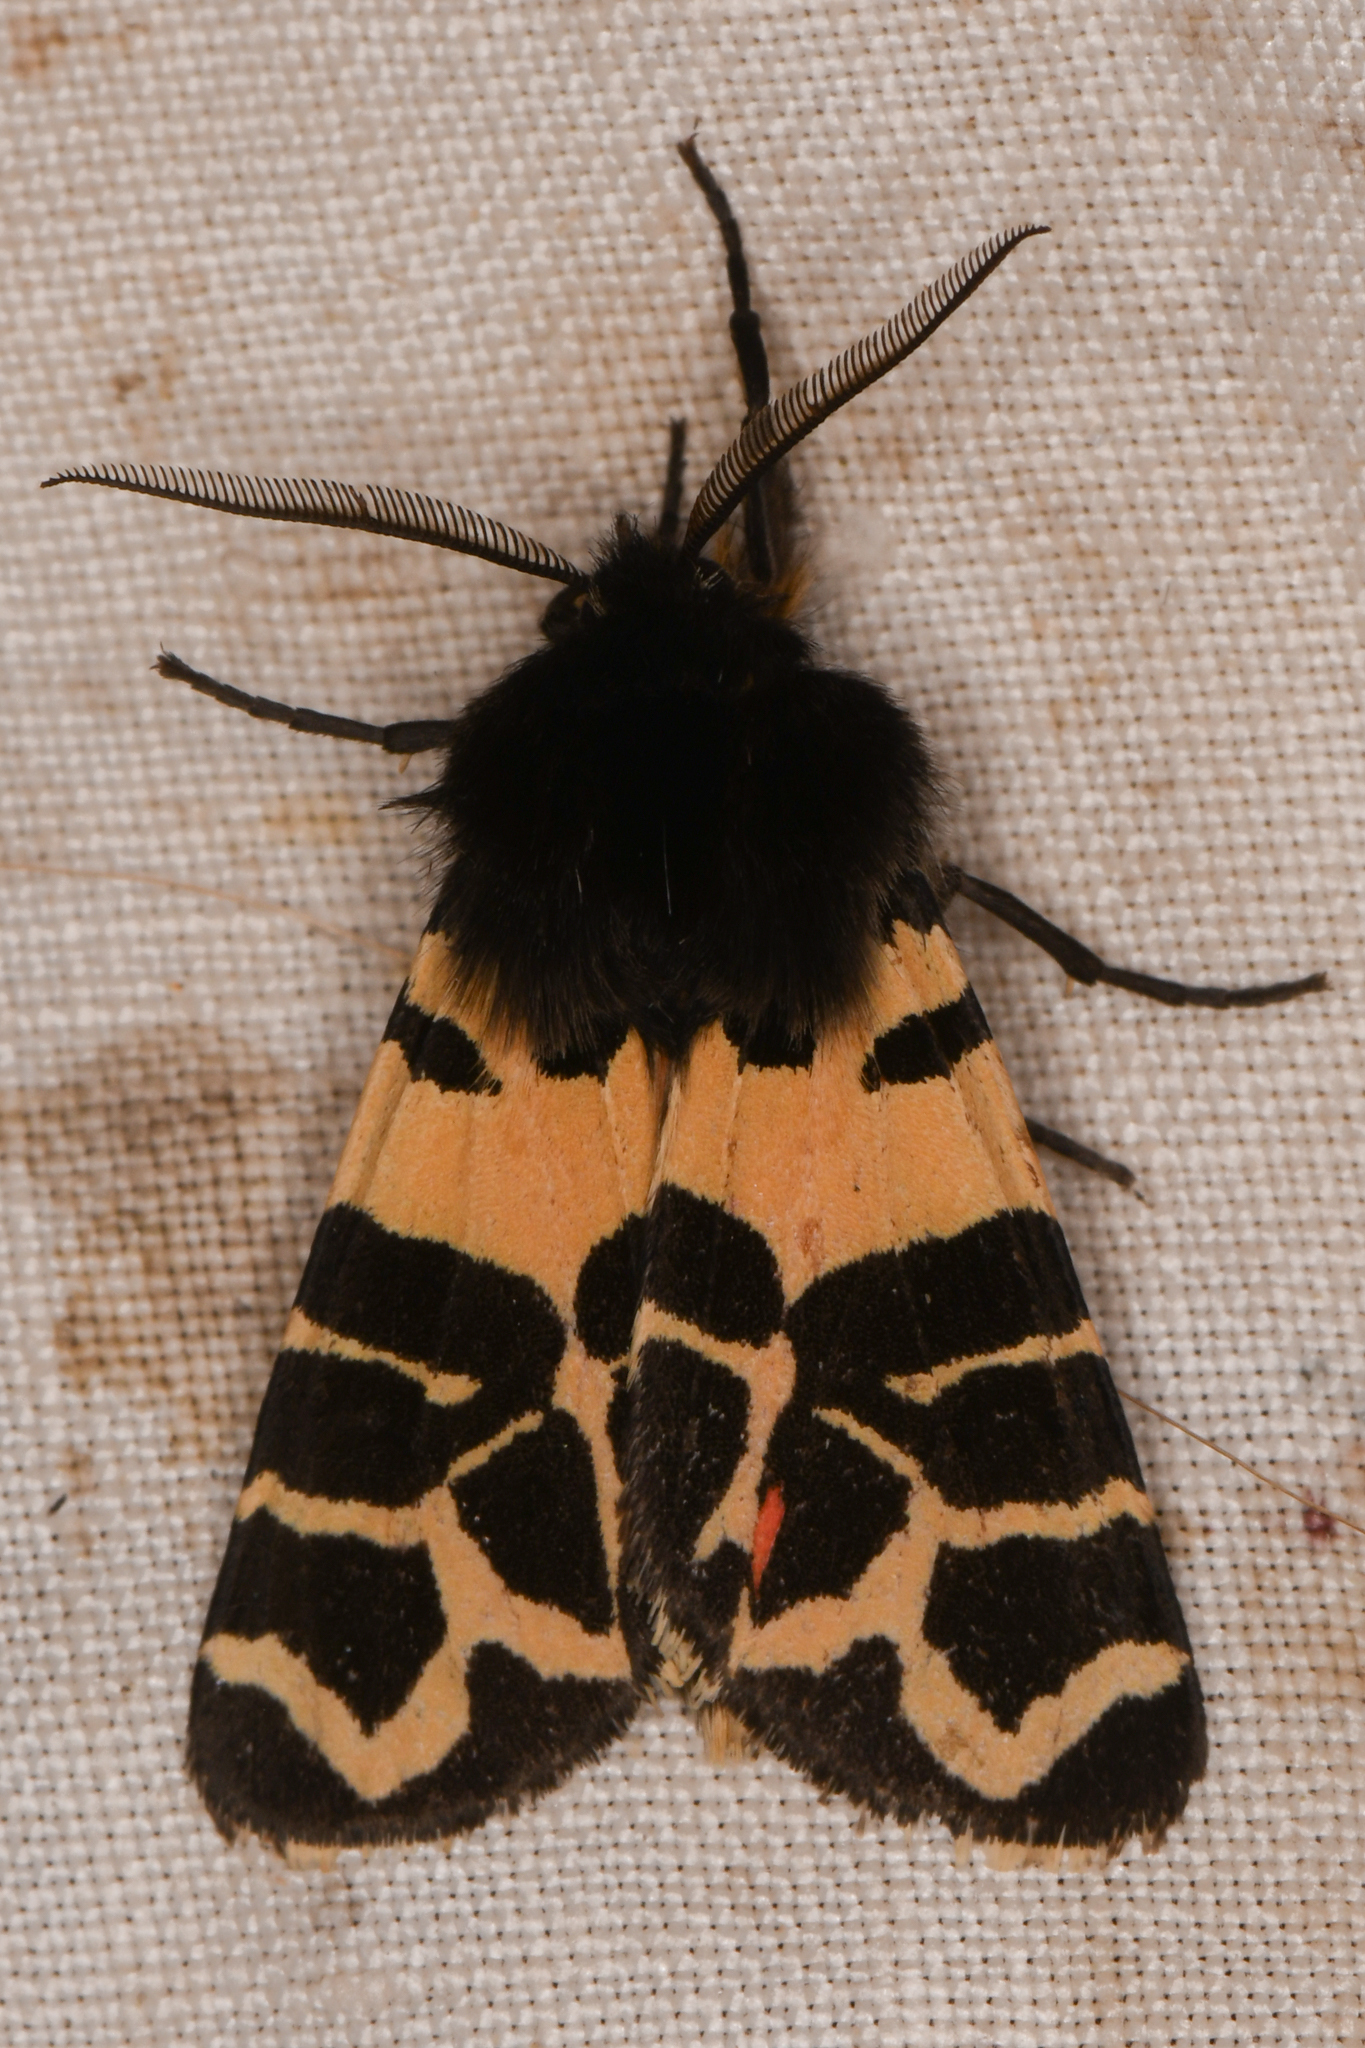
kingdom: Animalia
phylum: Arthropoda
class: Insecta
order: Lepidoptera
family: Erebidae
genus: Apantesis
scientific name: Apantesis
